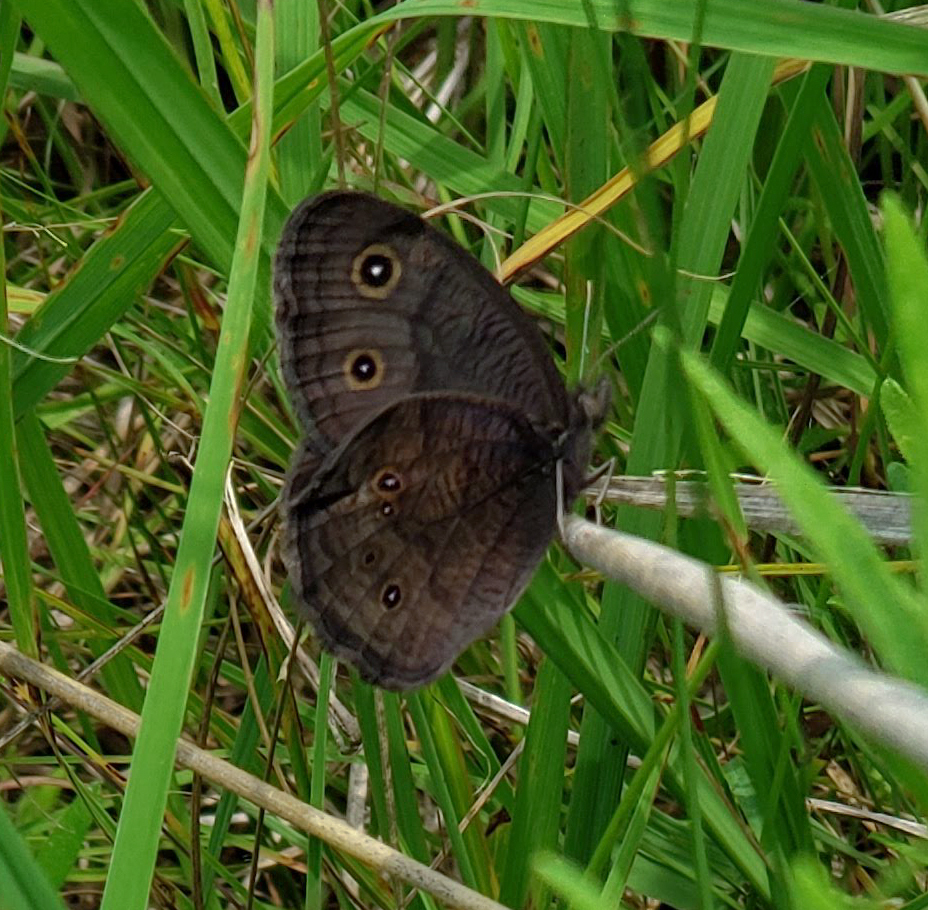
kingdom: Animalia
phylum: Arthropoda
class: Insecta
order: Lepidoptera
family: Nymphalidae
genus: Cercyonis
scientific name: Cercyonis pegala
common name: Common wood-nymph
